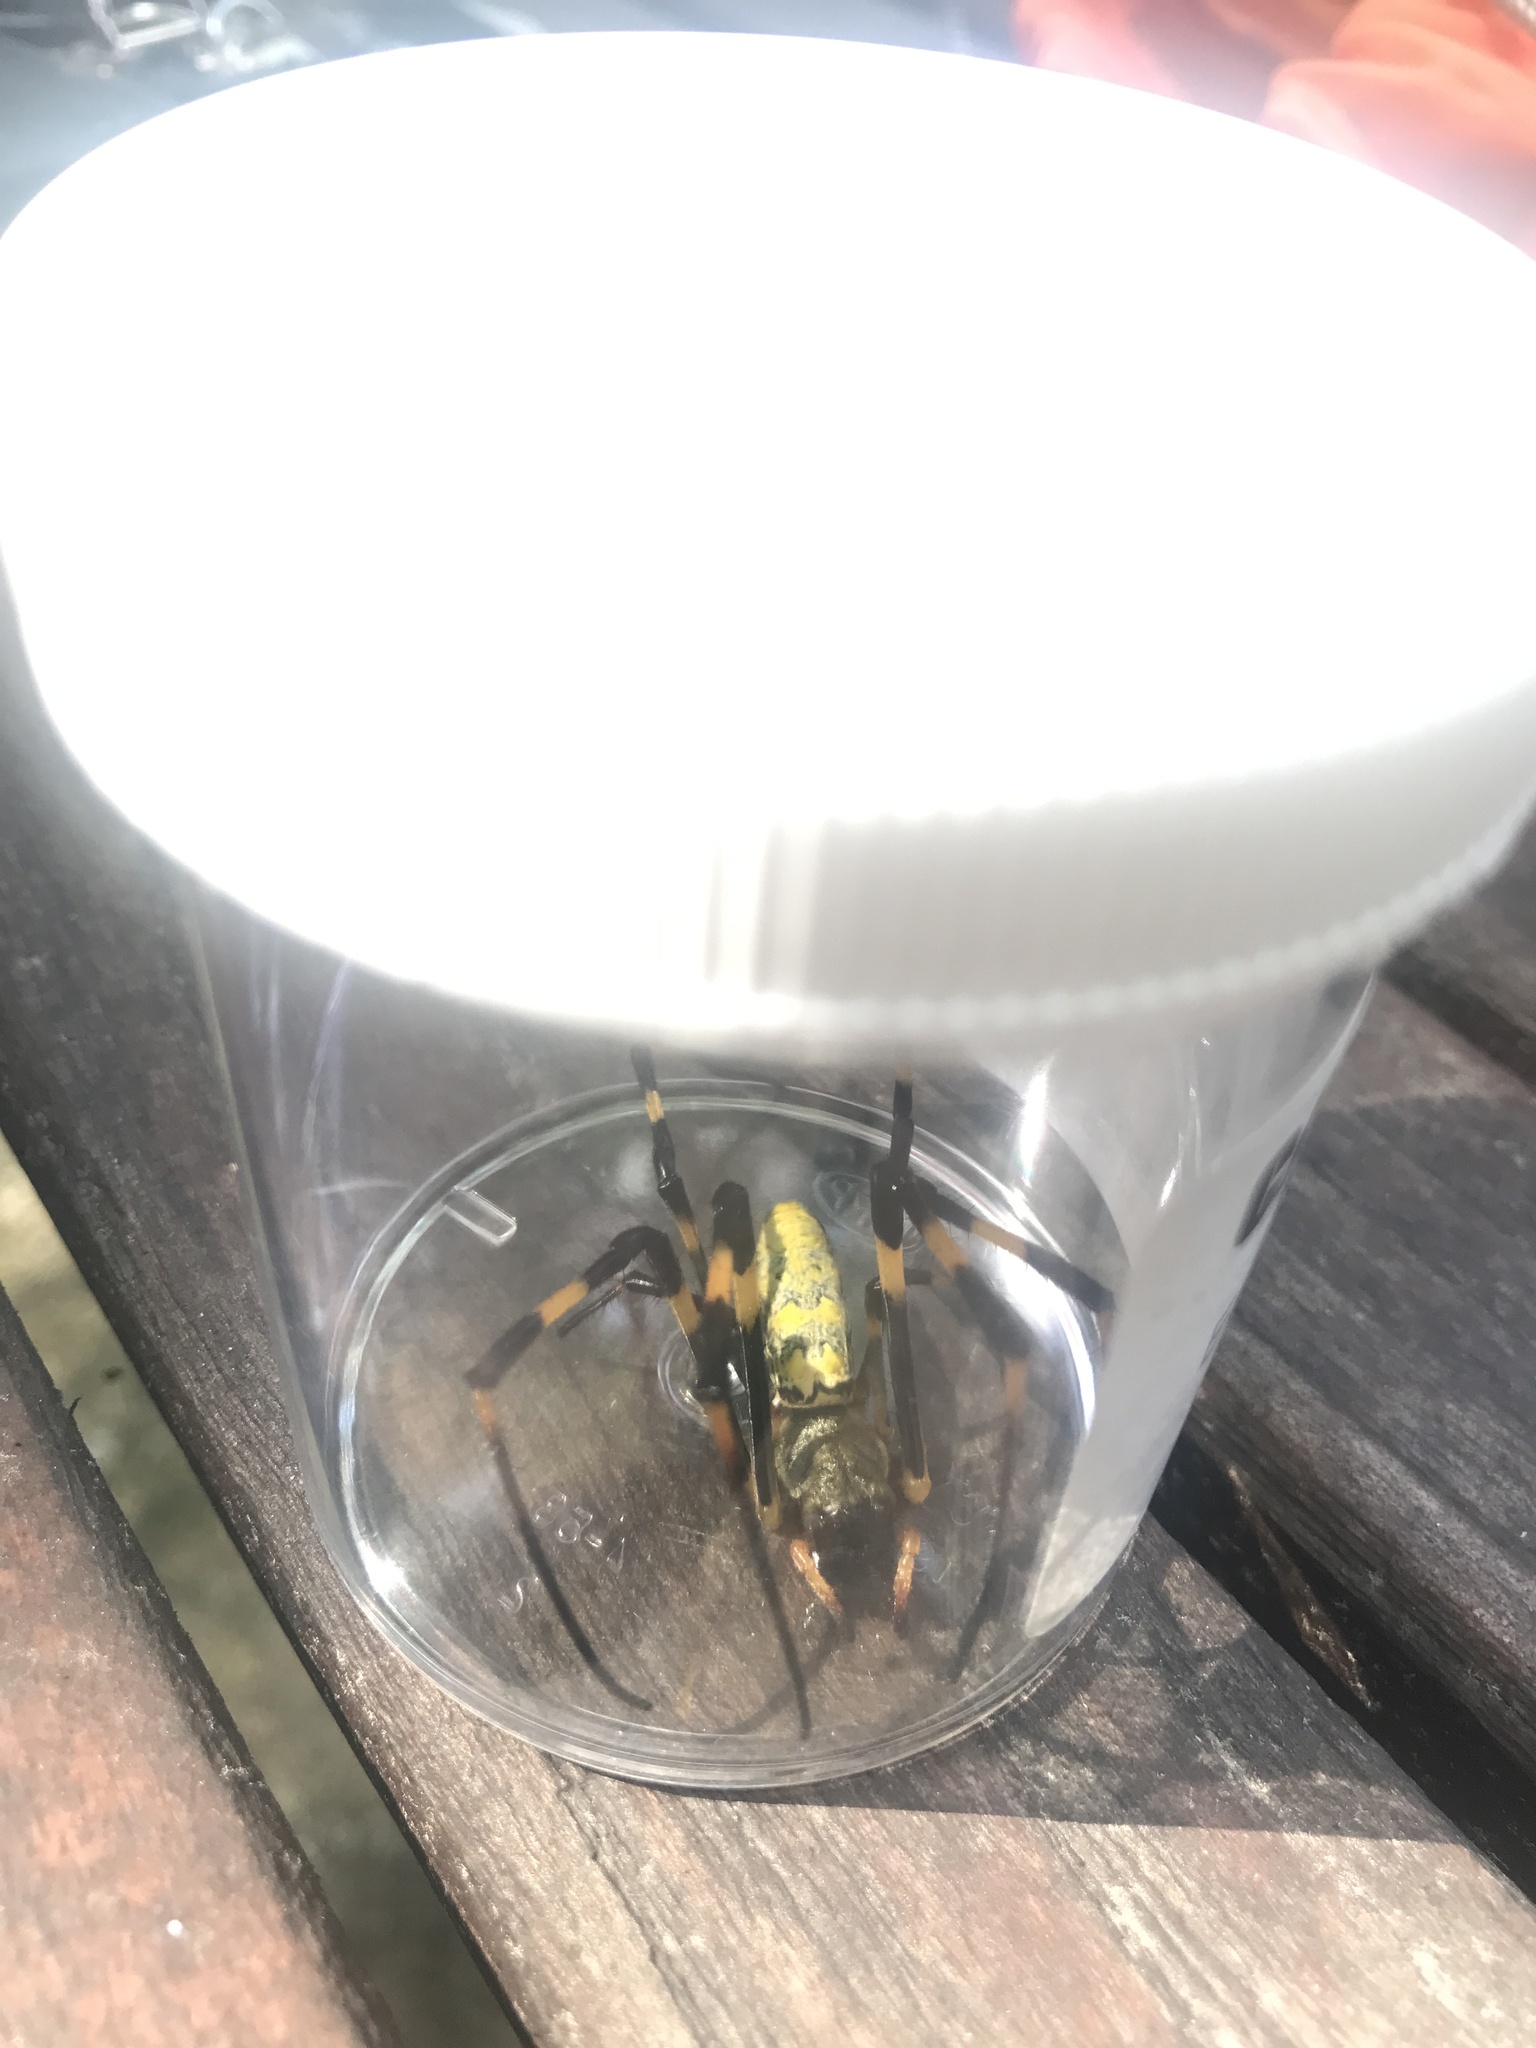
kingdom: Animalia
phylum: Arthropoda
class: Arachnida
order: Araneae
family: Araneidae
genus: Trichonephila
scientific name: Trichonephila clavata
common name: Jorō spider
